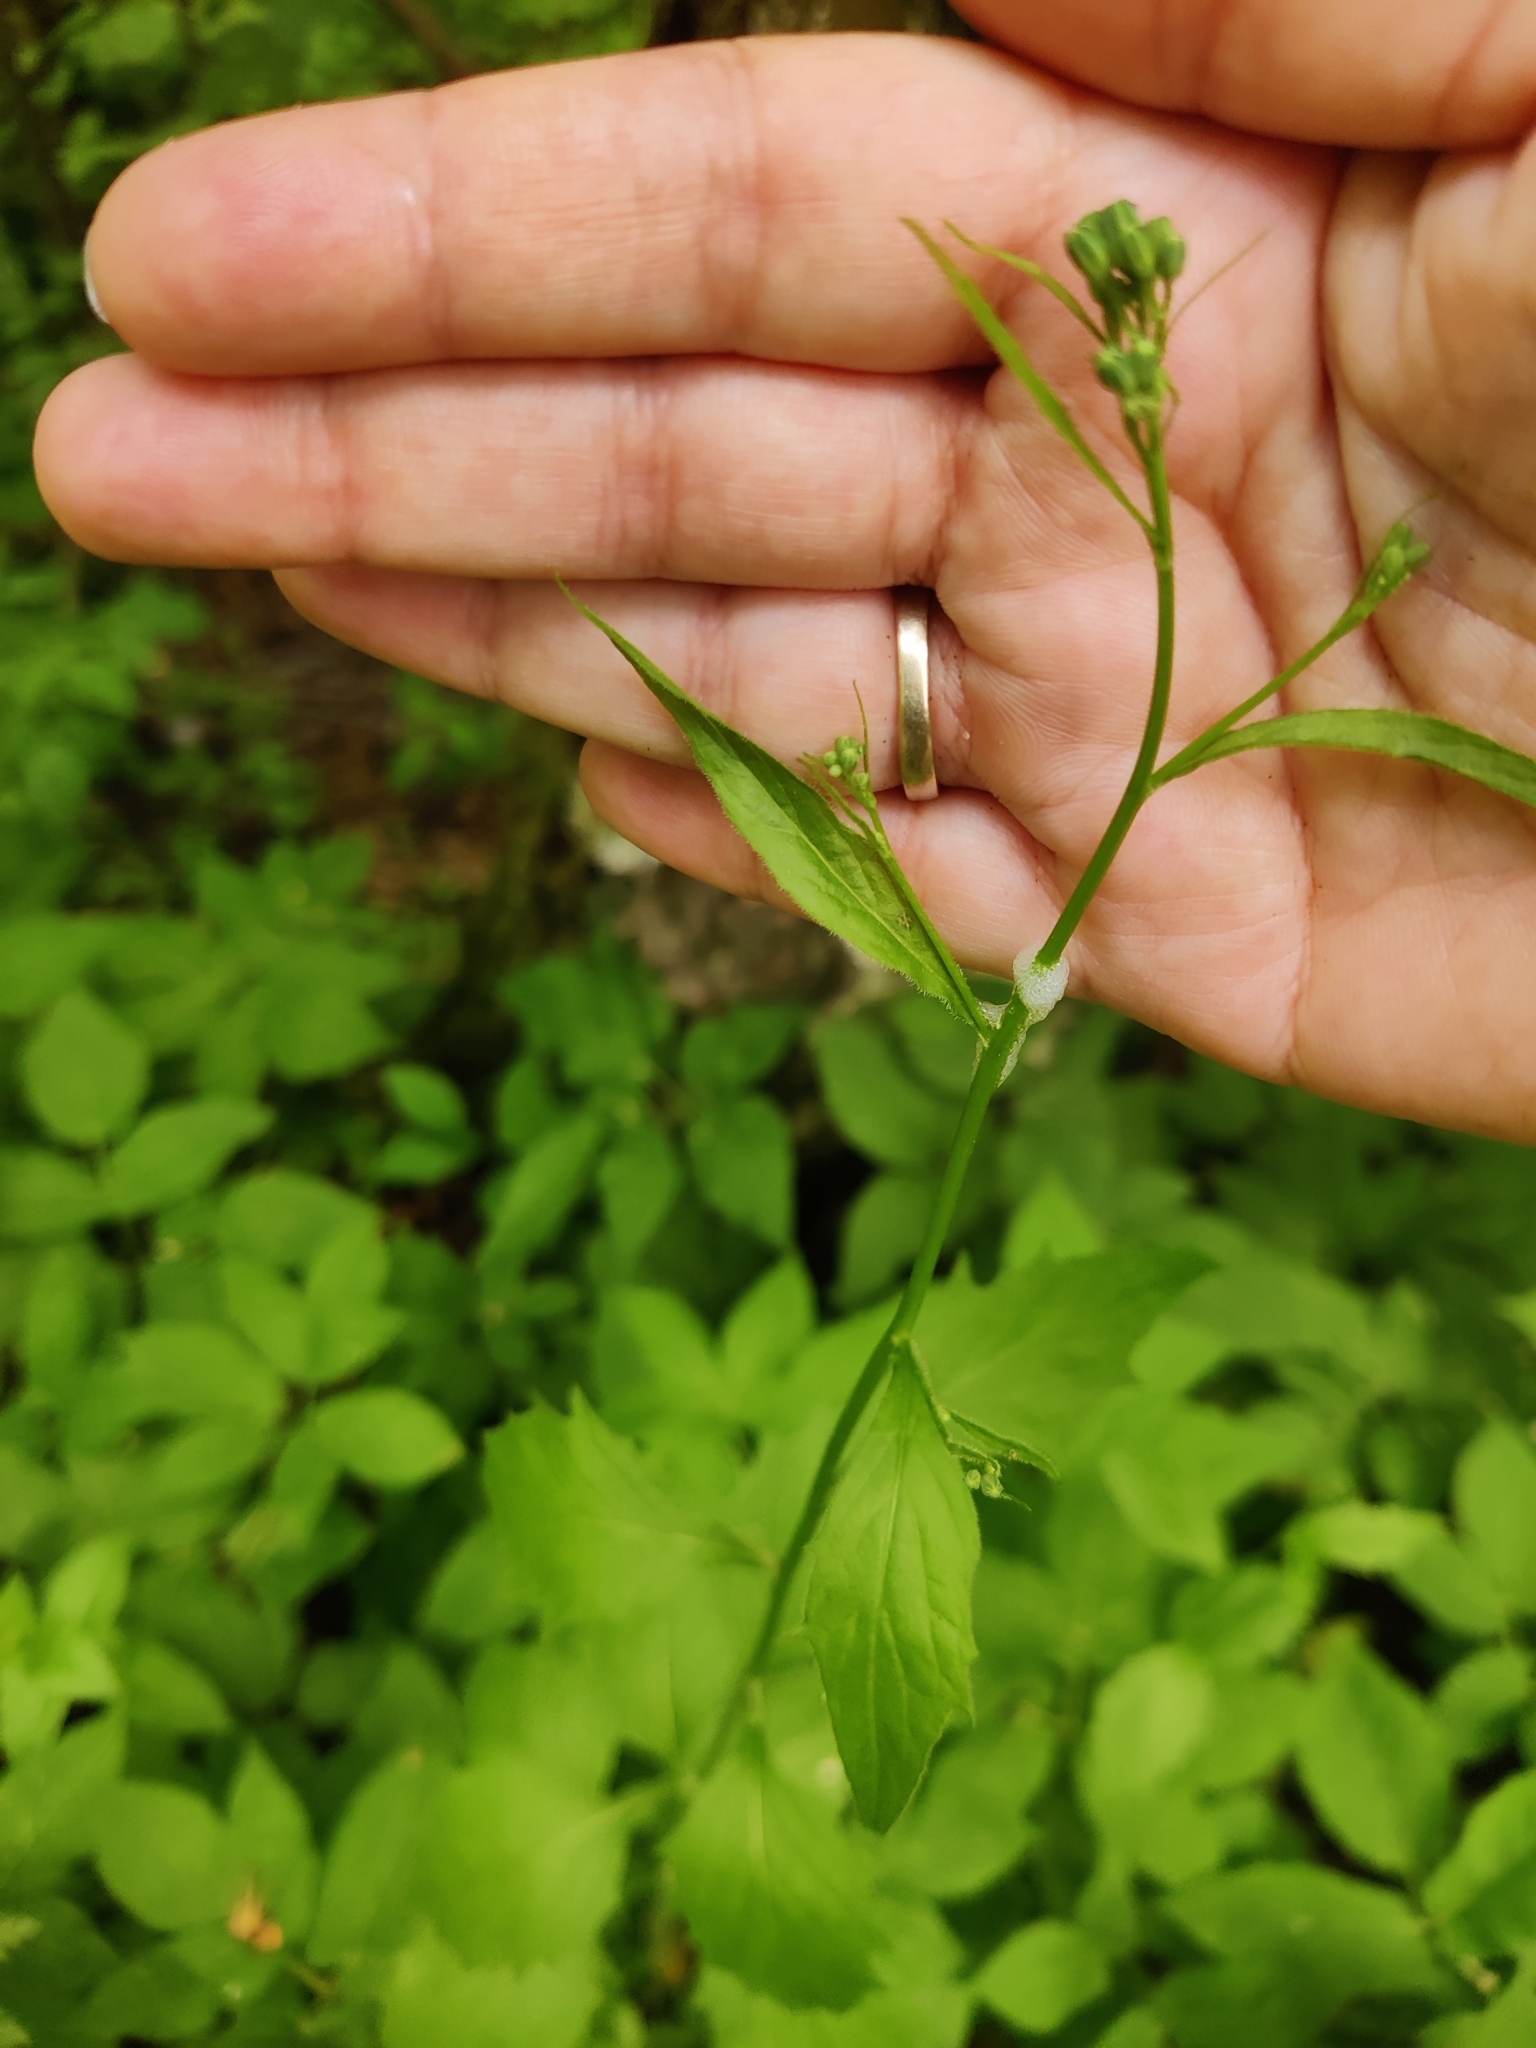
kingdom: Plantae
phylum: Tracheophyta
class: Magnoliopsida
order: Asterales
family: Asteraceae
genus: Lapsana
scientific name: Lapsana communis
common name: Nipplewort
